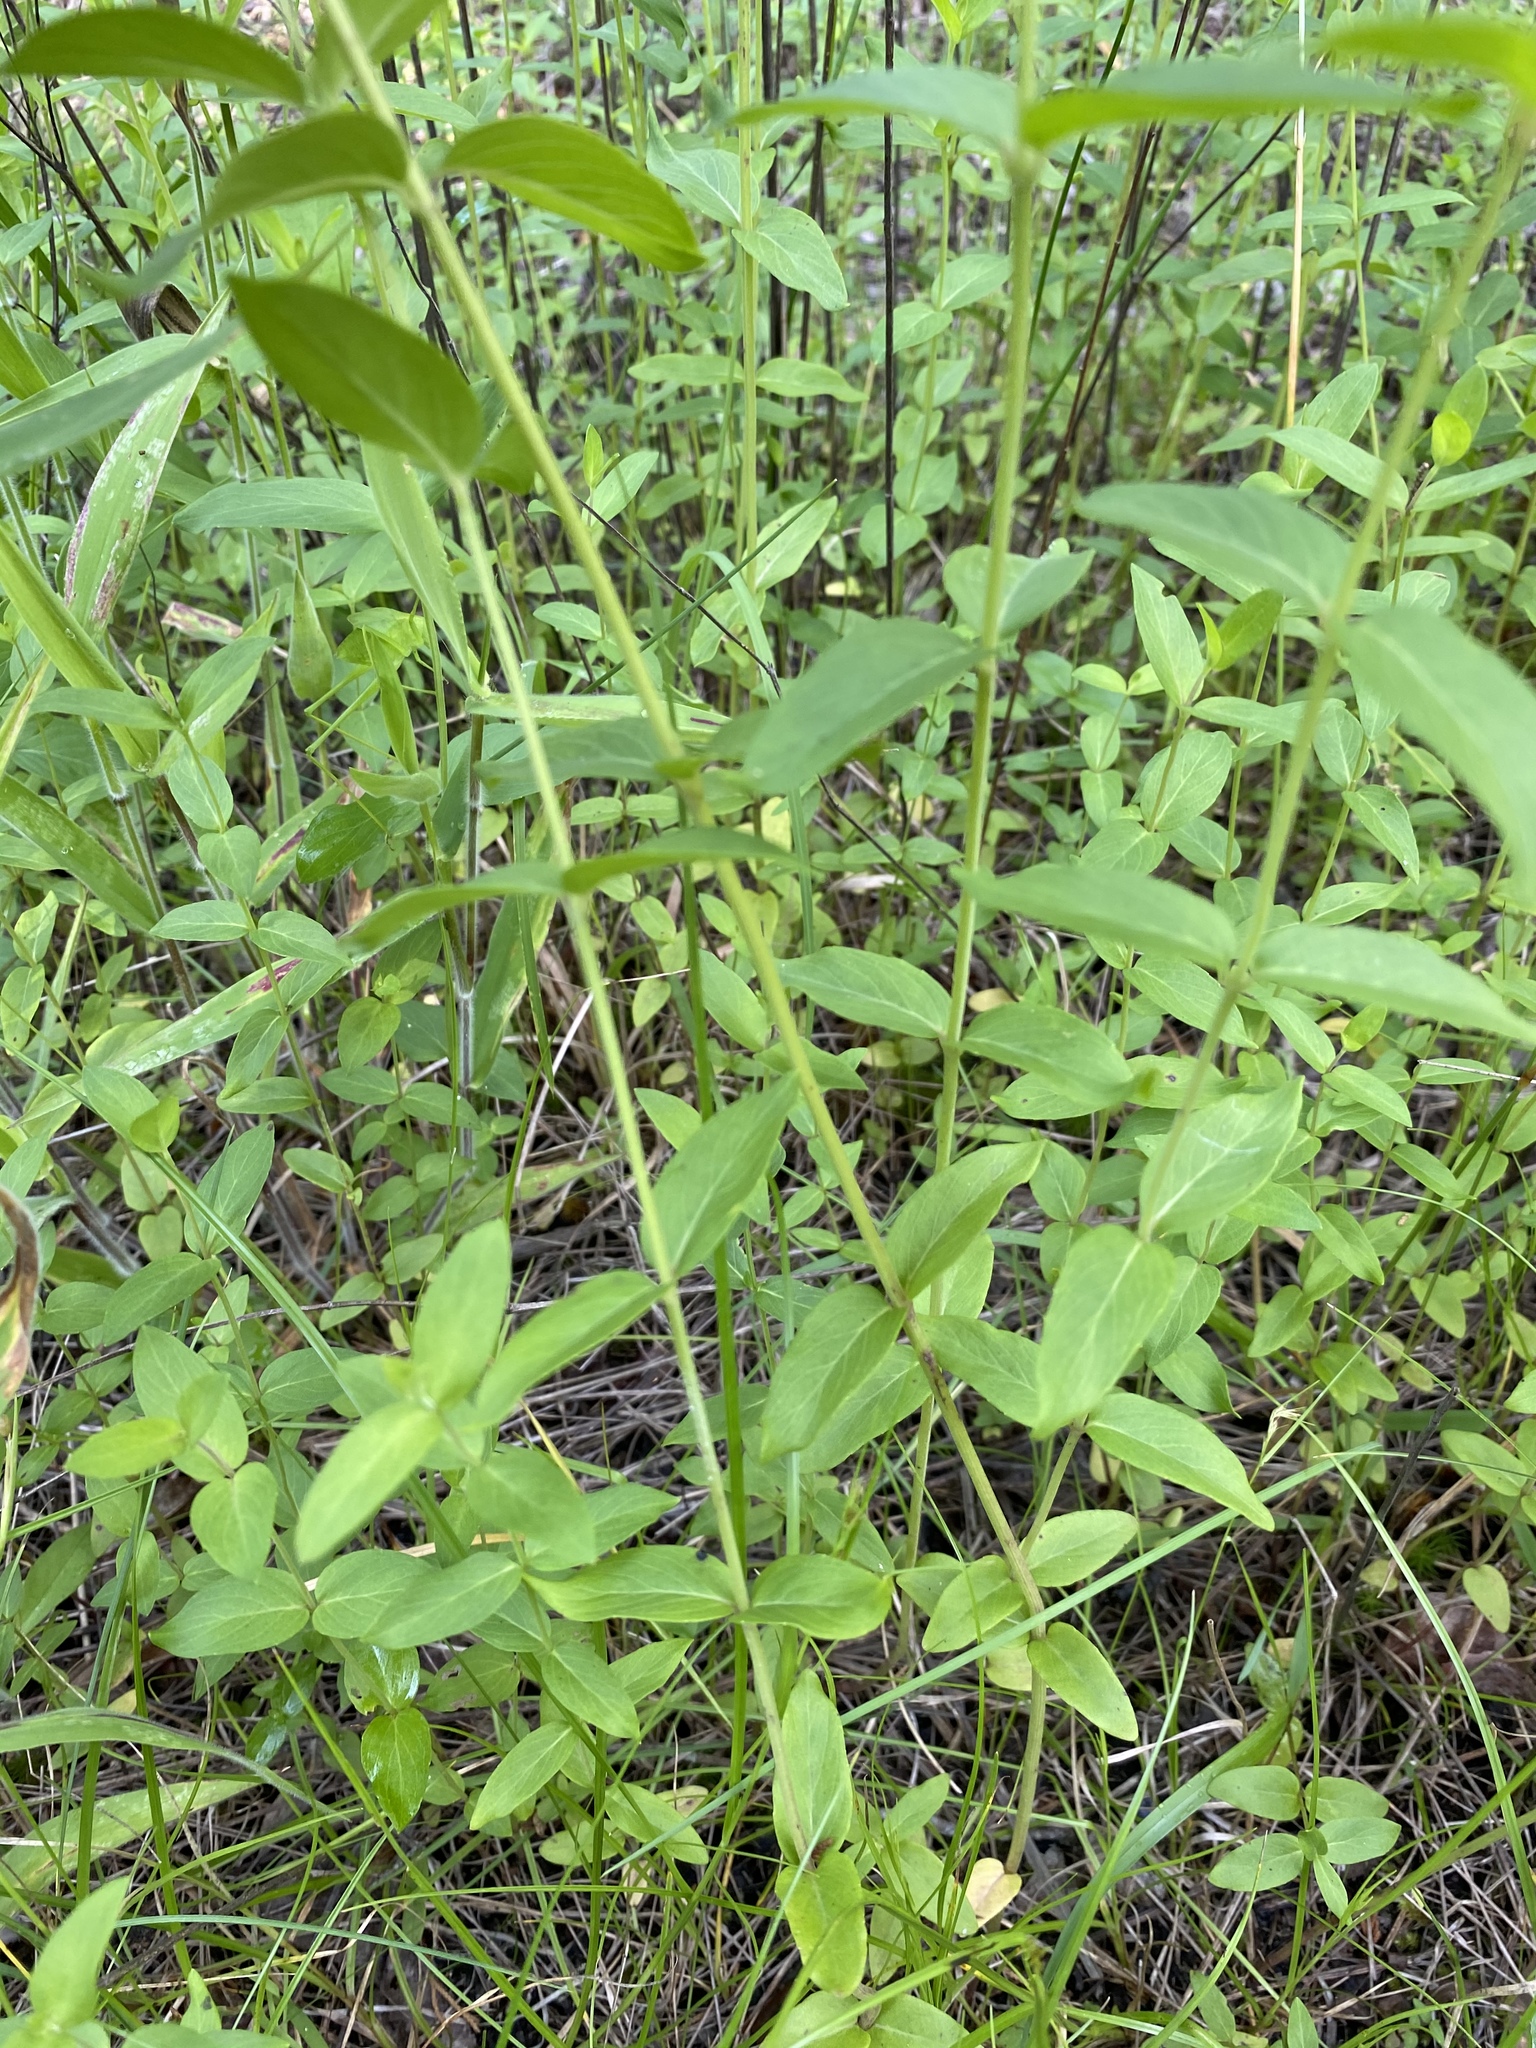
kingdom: Plantae
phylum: Tracheophyta
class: Magnoliopsida
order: Lamiales
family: Lamiaceae
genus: Pycnanthemum
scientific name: Pycnanthemum setosum
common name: Awned mountain-mint
